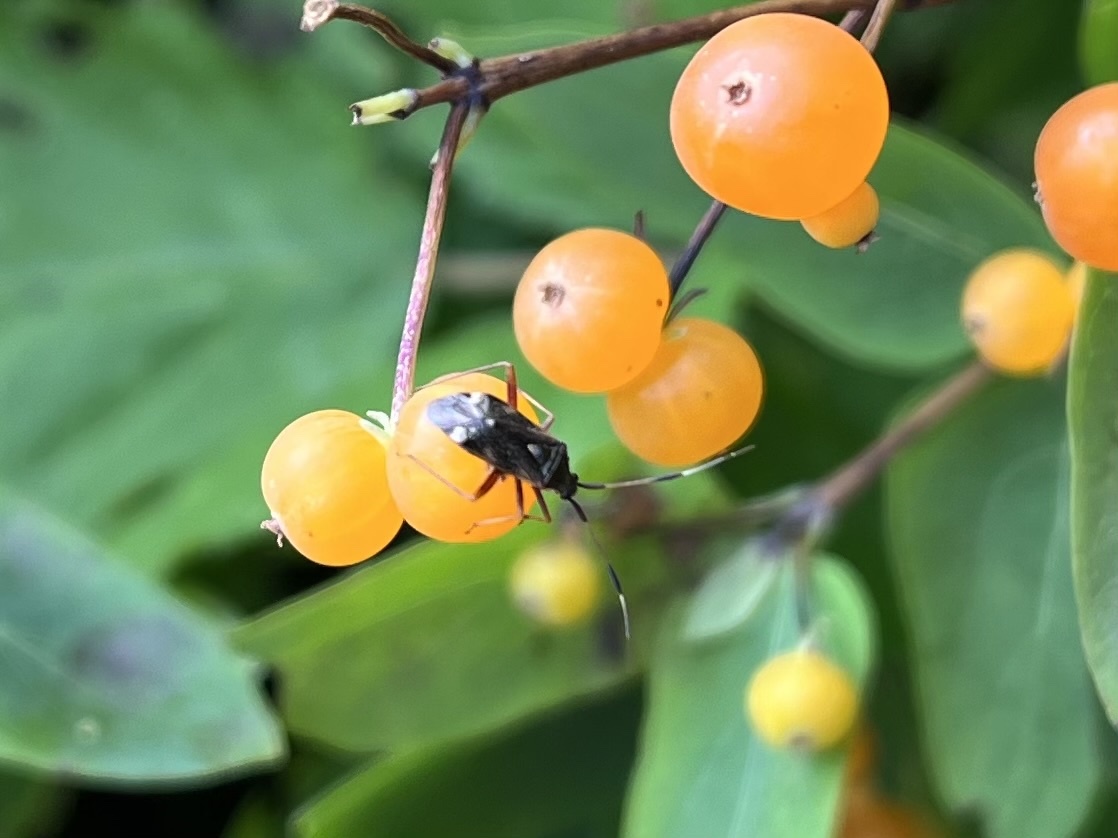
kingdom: Animalia
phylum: Arthropoda
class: Insecta
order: Hemiptera
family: Miridae
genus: Closterotomus
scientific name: Closterotomus biclavatus
